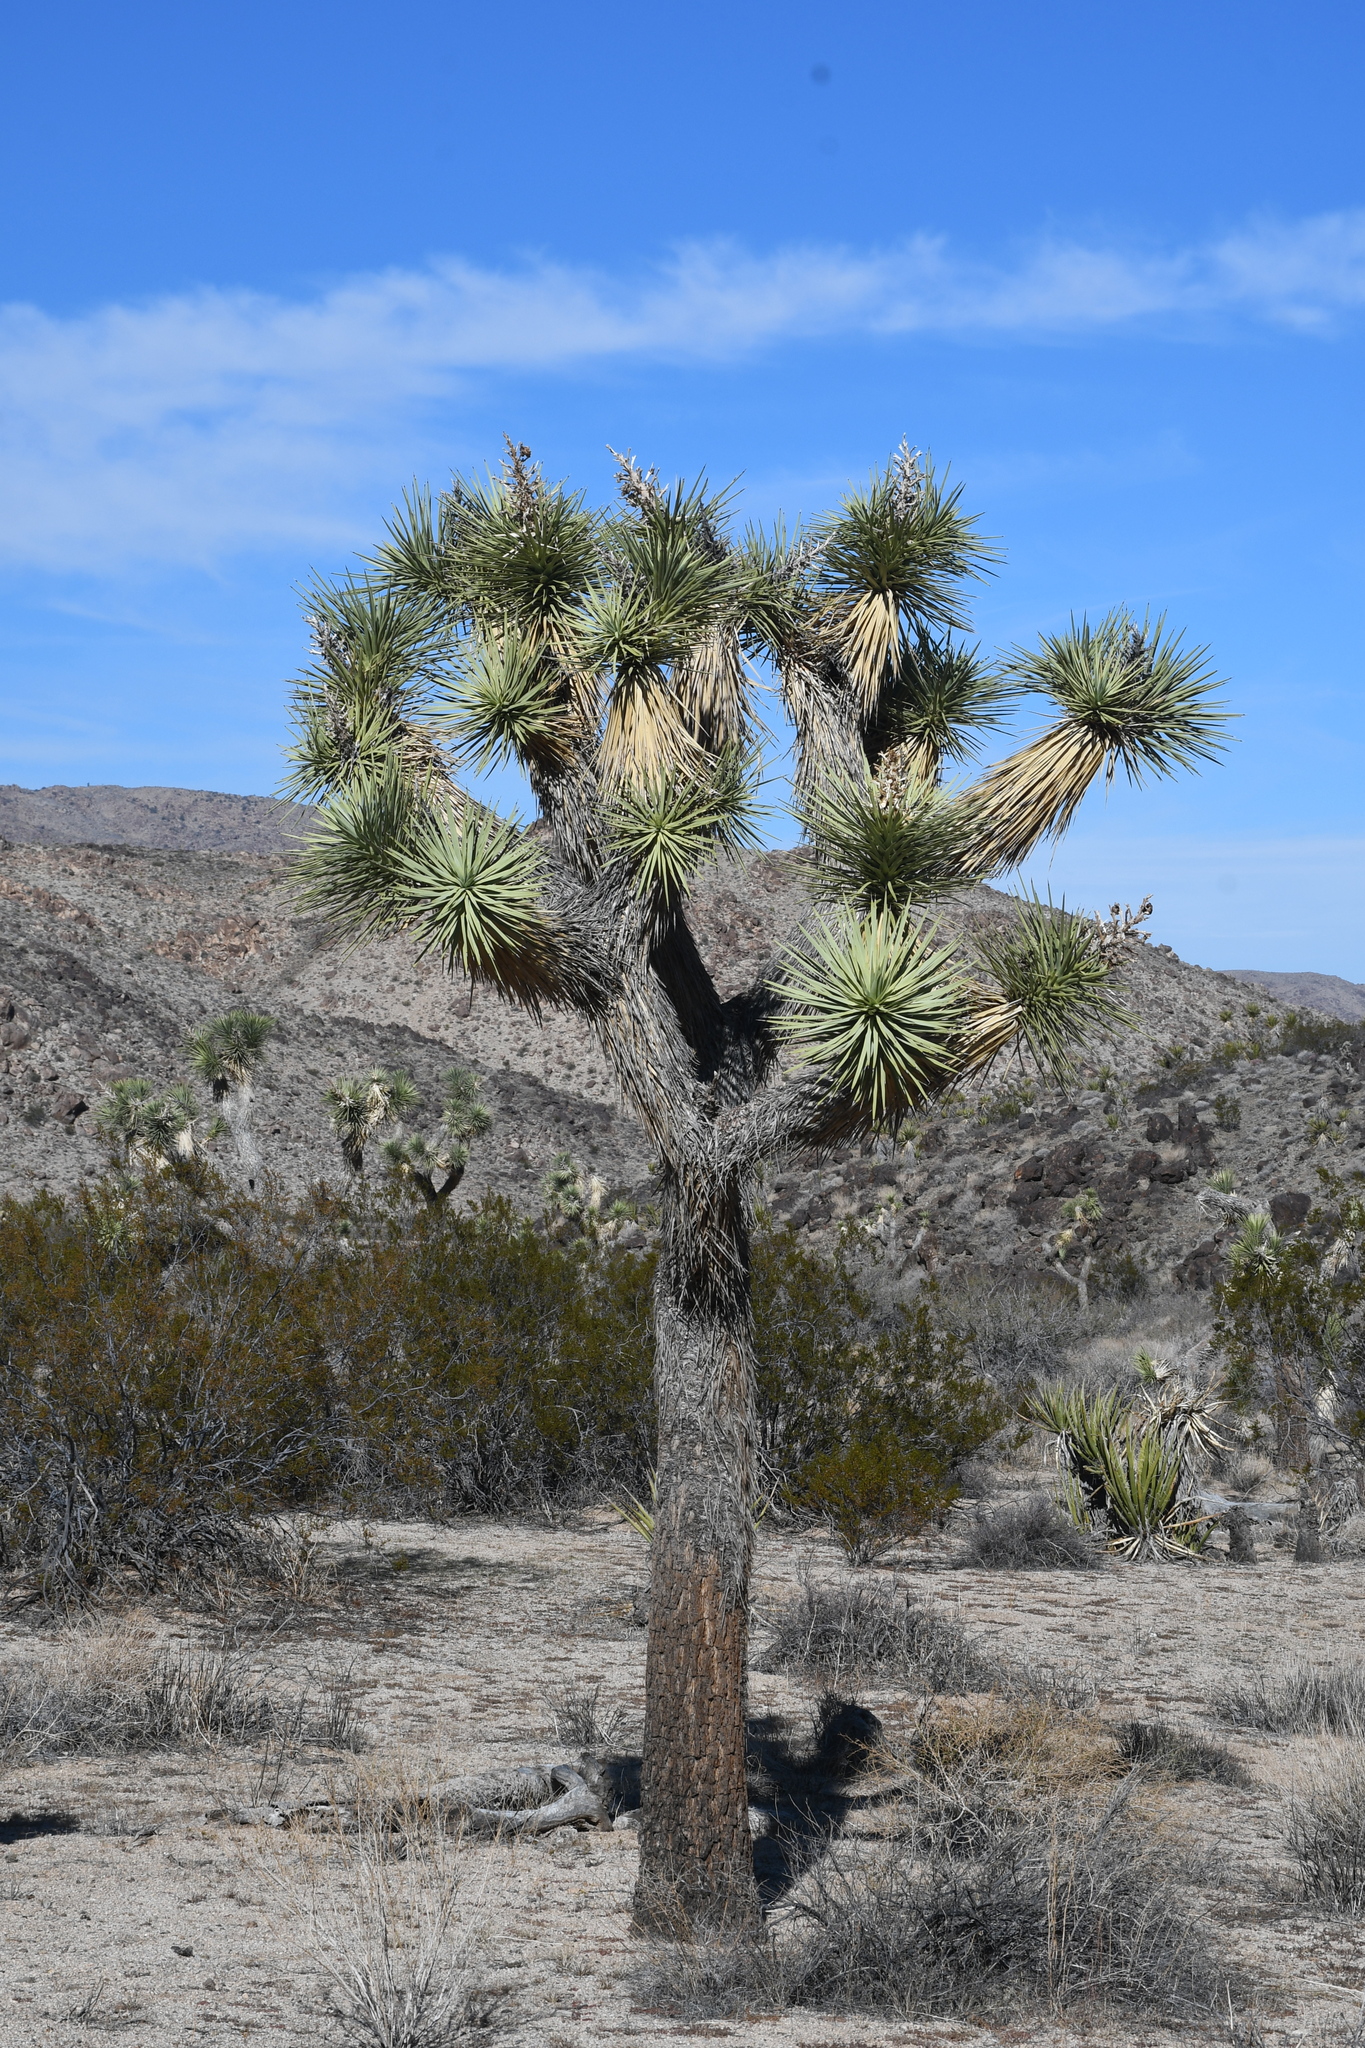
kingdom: Plantae
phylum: Tracheophyta
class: Liliopsida
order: Asparagales
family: Asparagaceae
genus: Yucca
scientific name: Yucca brevifolia
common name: Joshua tree
